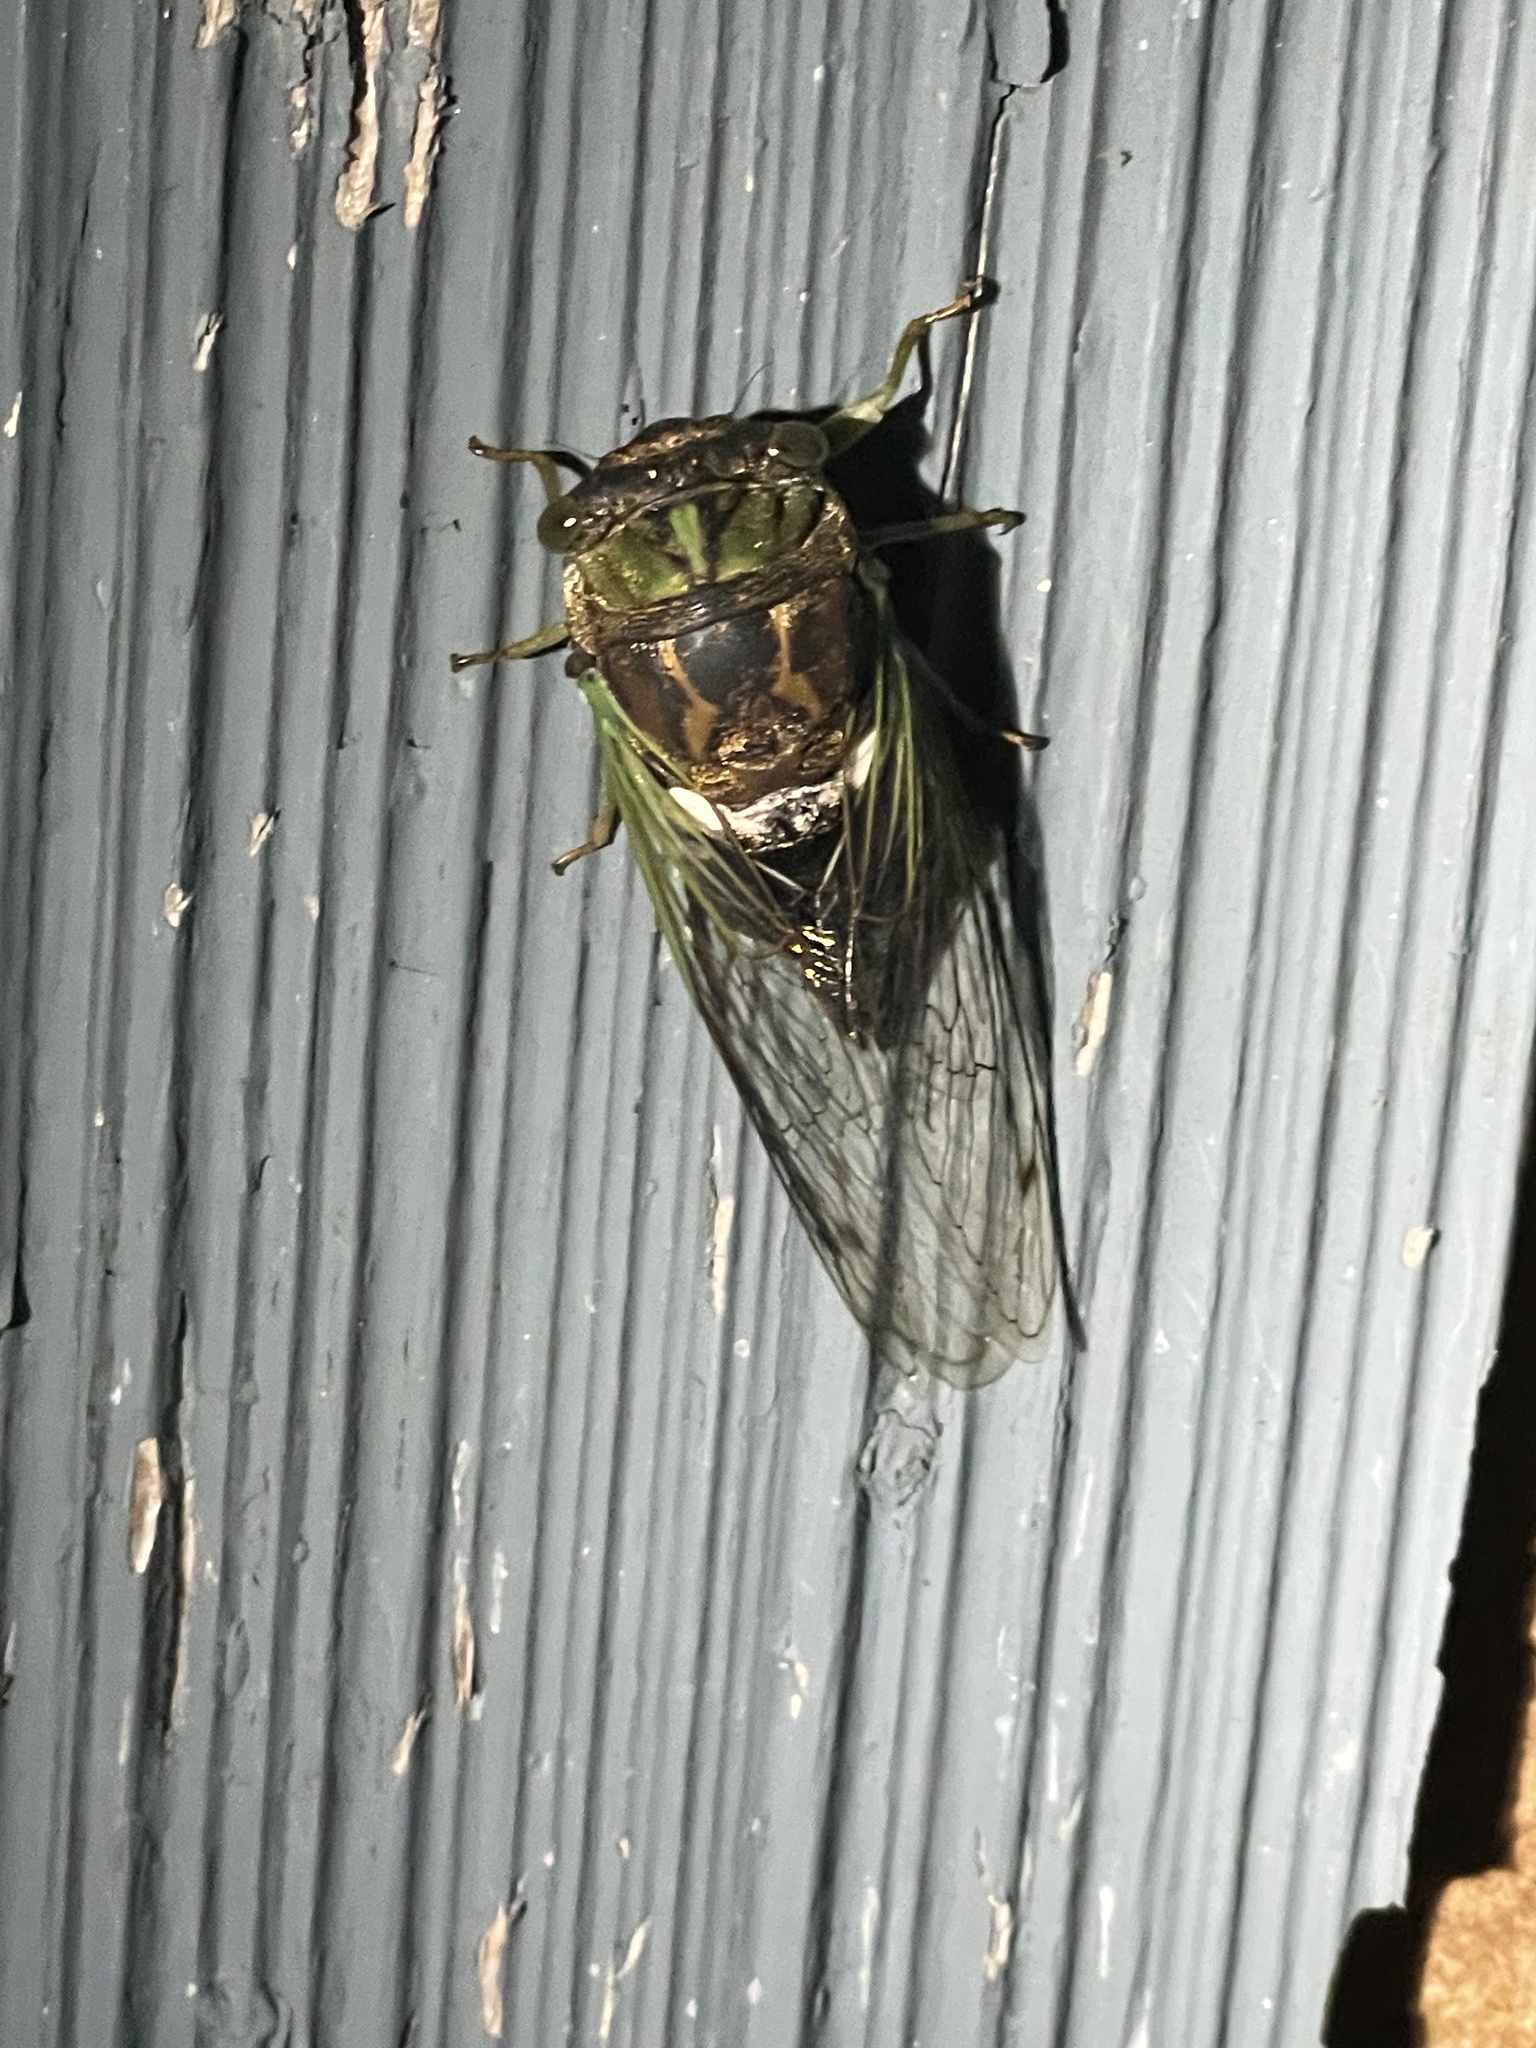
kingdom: Animalia
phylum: Arthropoda
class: Insecta
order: Hemiptera
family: Cicadidae
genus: Neotibicen
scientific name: Neotibicen tibicen
